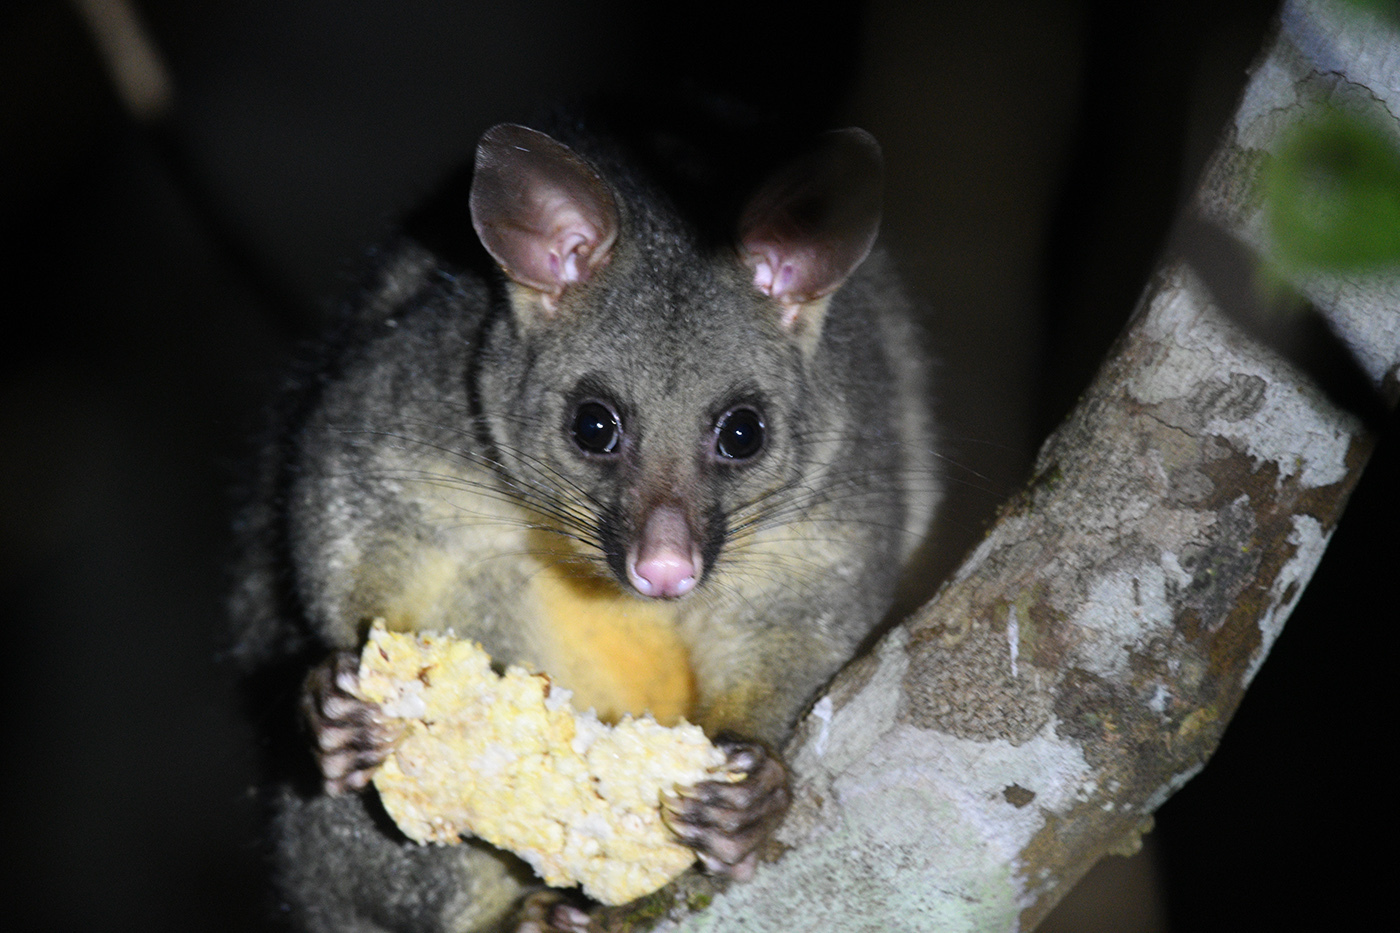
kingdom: Animalia
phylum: Chordata
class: Mammalia
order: Diprotodontia
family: Phalangeridae
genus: Trichosurus
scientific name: Trichosurus vulpecula
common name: Common brushtail
